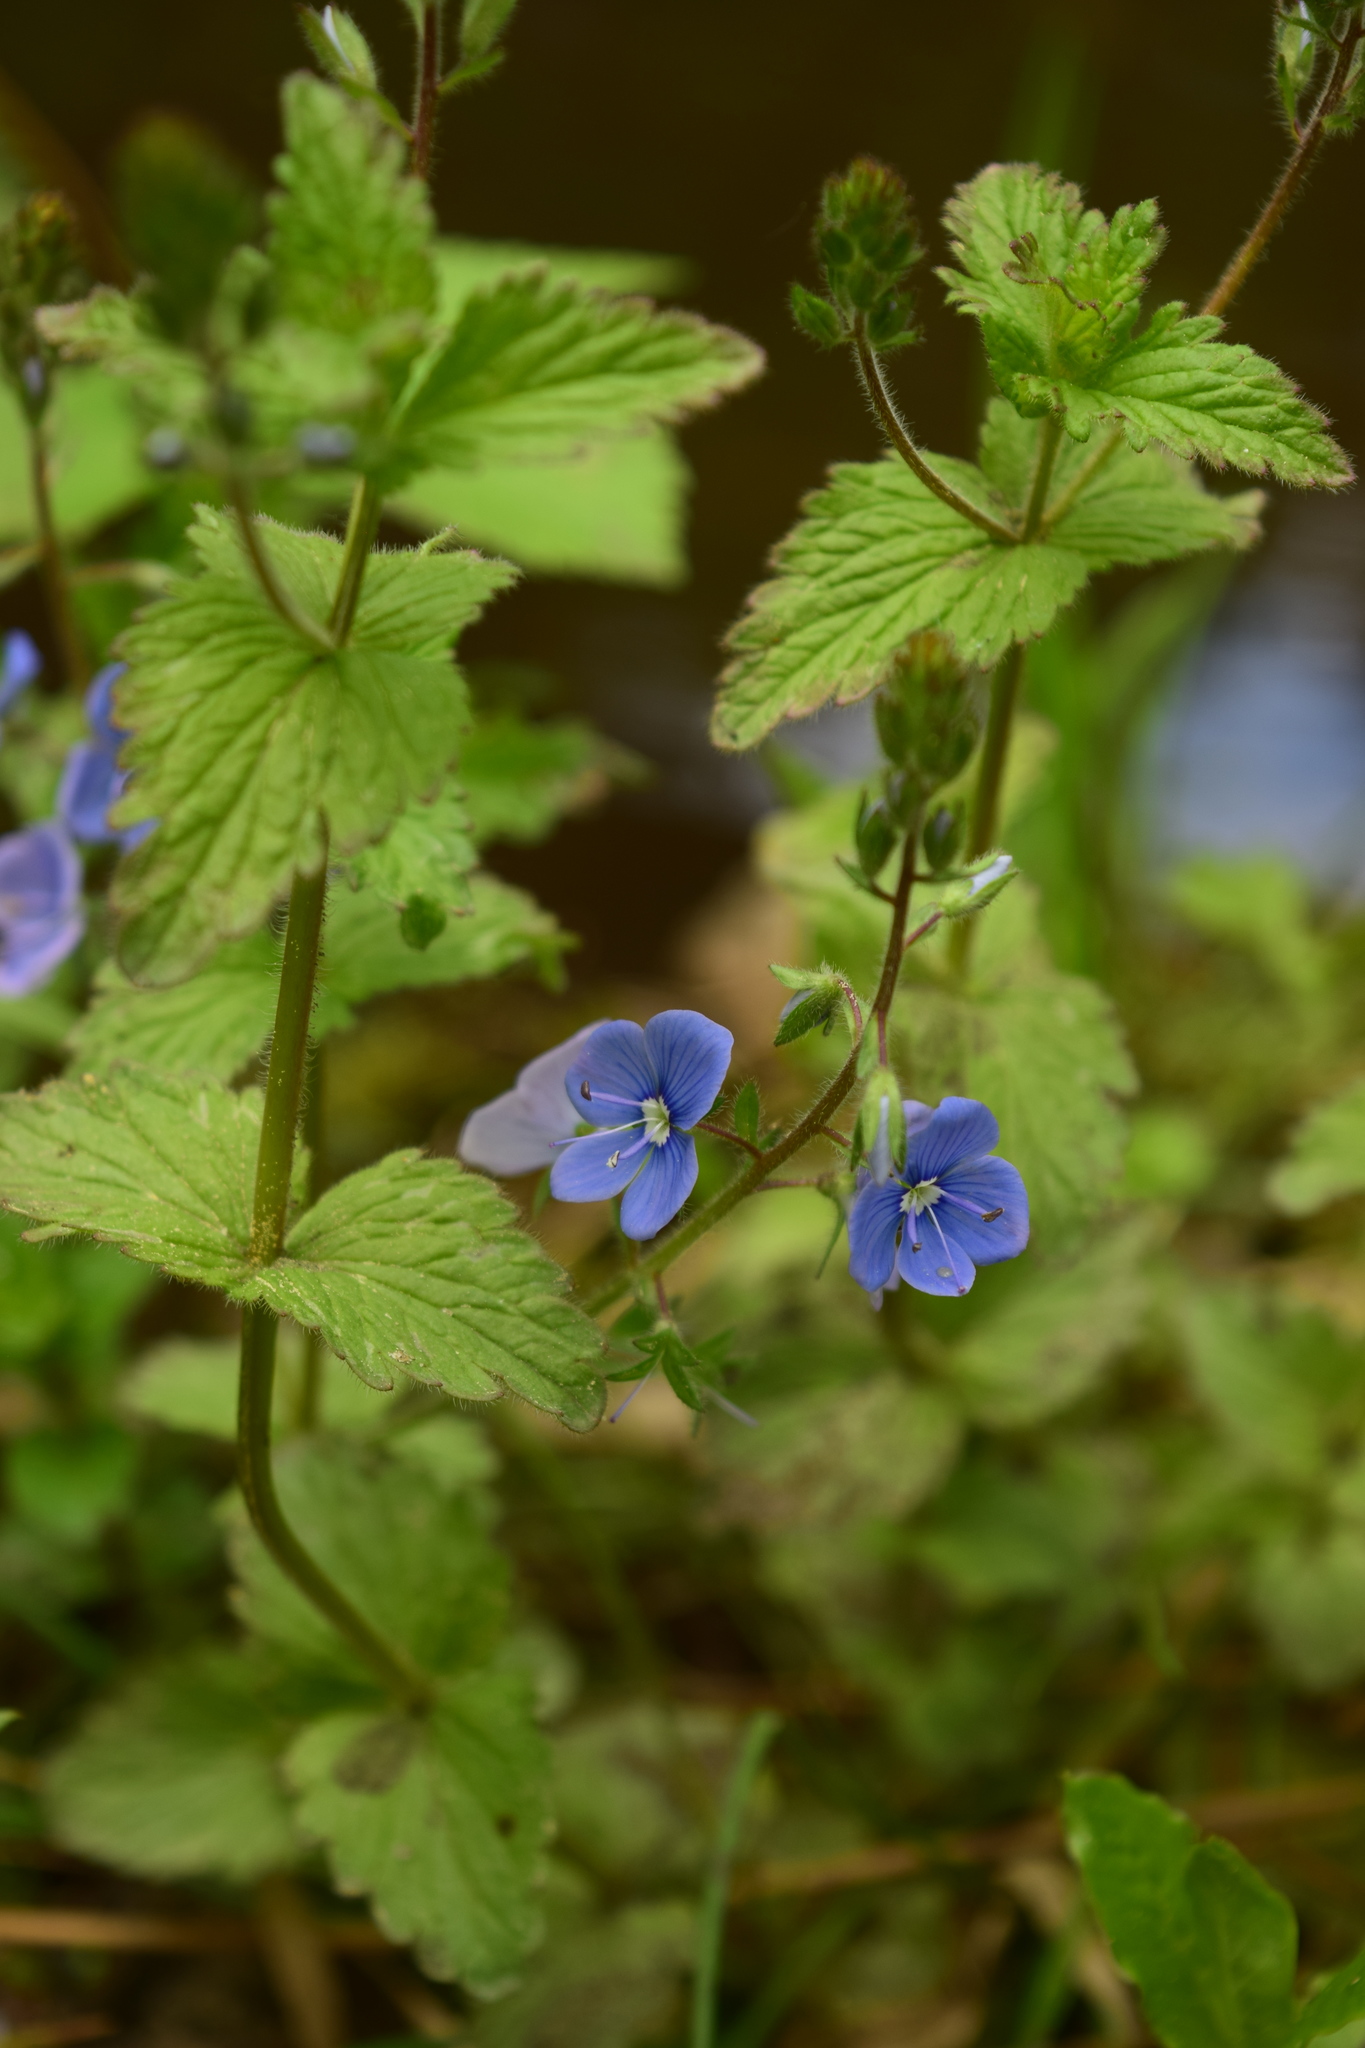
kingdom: Plantae
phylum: Tracheophyta
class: Magnoliopsida
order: Lamiales
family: Plantaginaceae
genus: Veronica
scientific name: Veronica chamaedrys
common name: Germander speedwell
